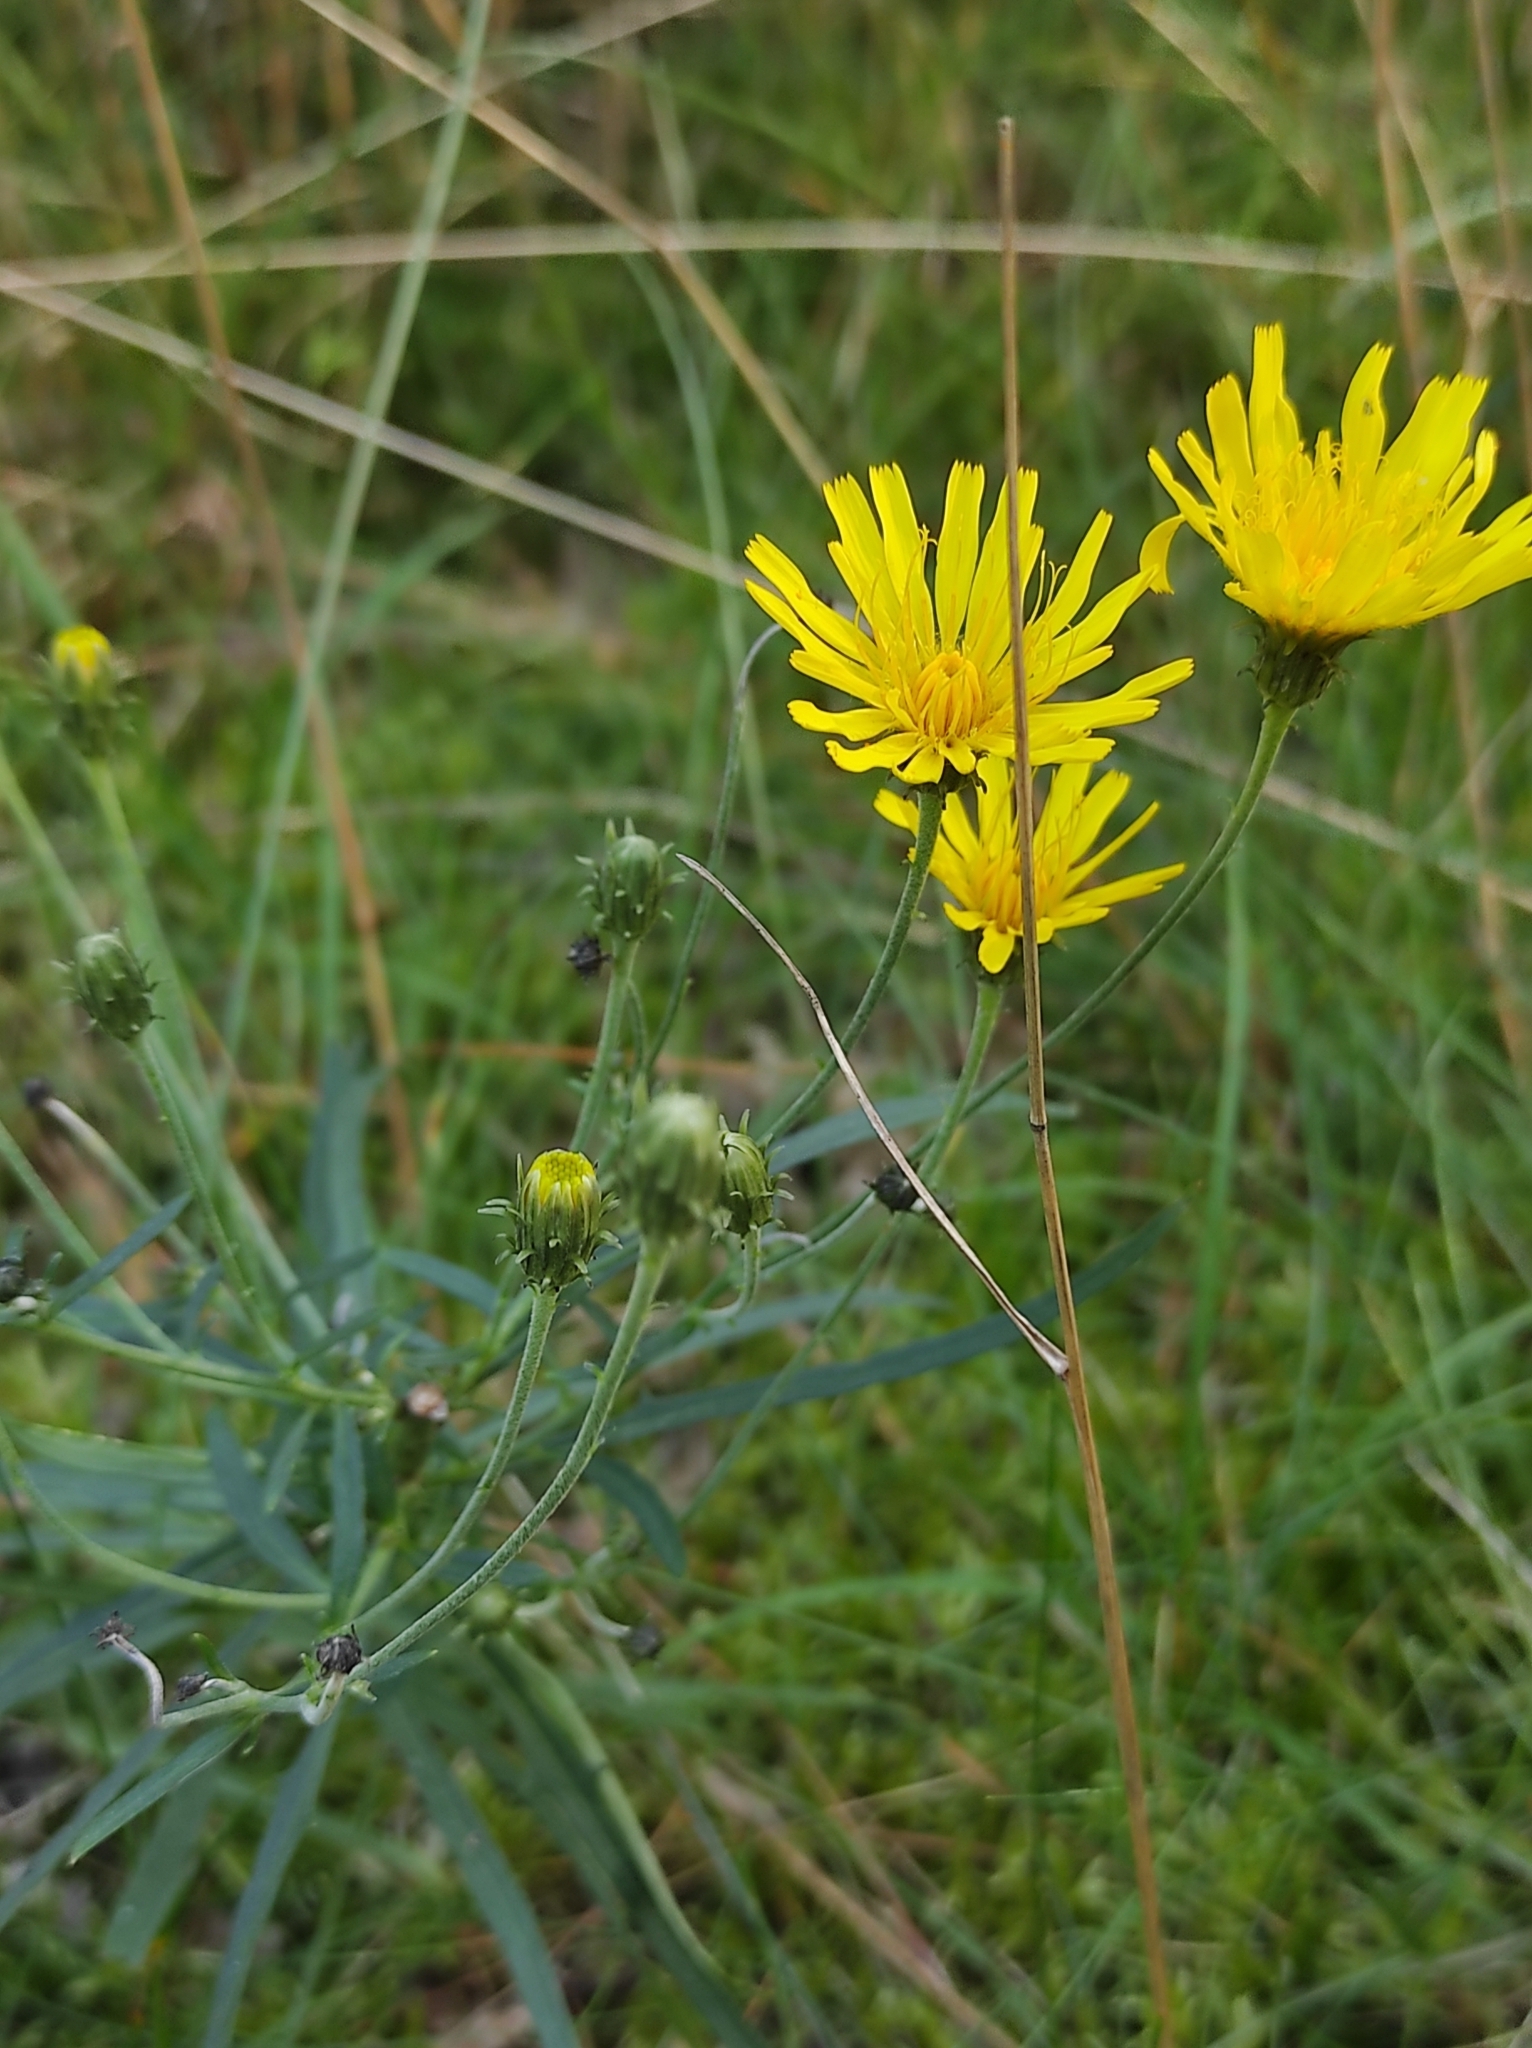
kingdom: Plantae
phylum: Tracheophyta
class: Magnoliopsida
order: Asterales
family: Asteraceae
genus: Hieracium
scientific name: Hieracium umbellatum
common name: Northern hawkweed
